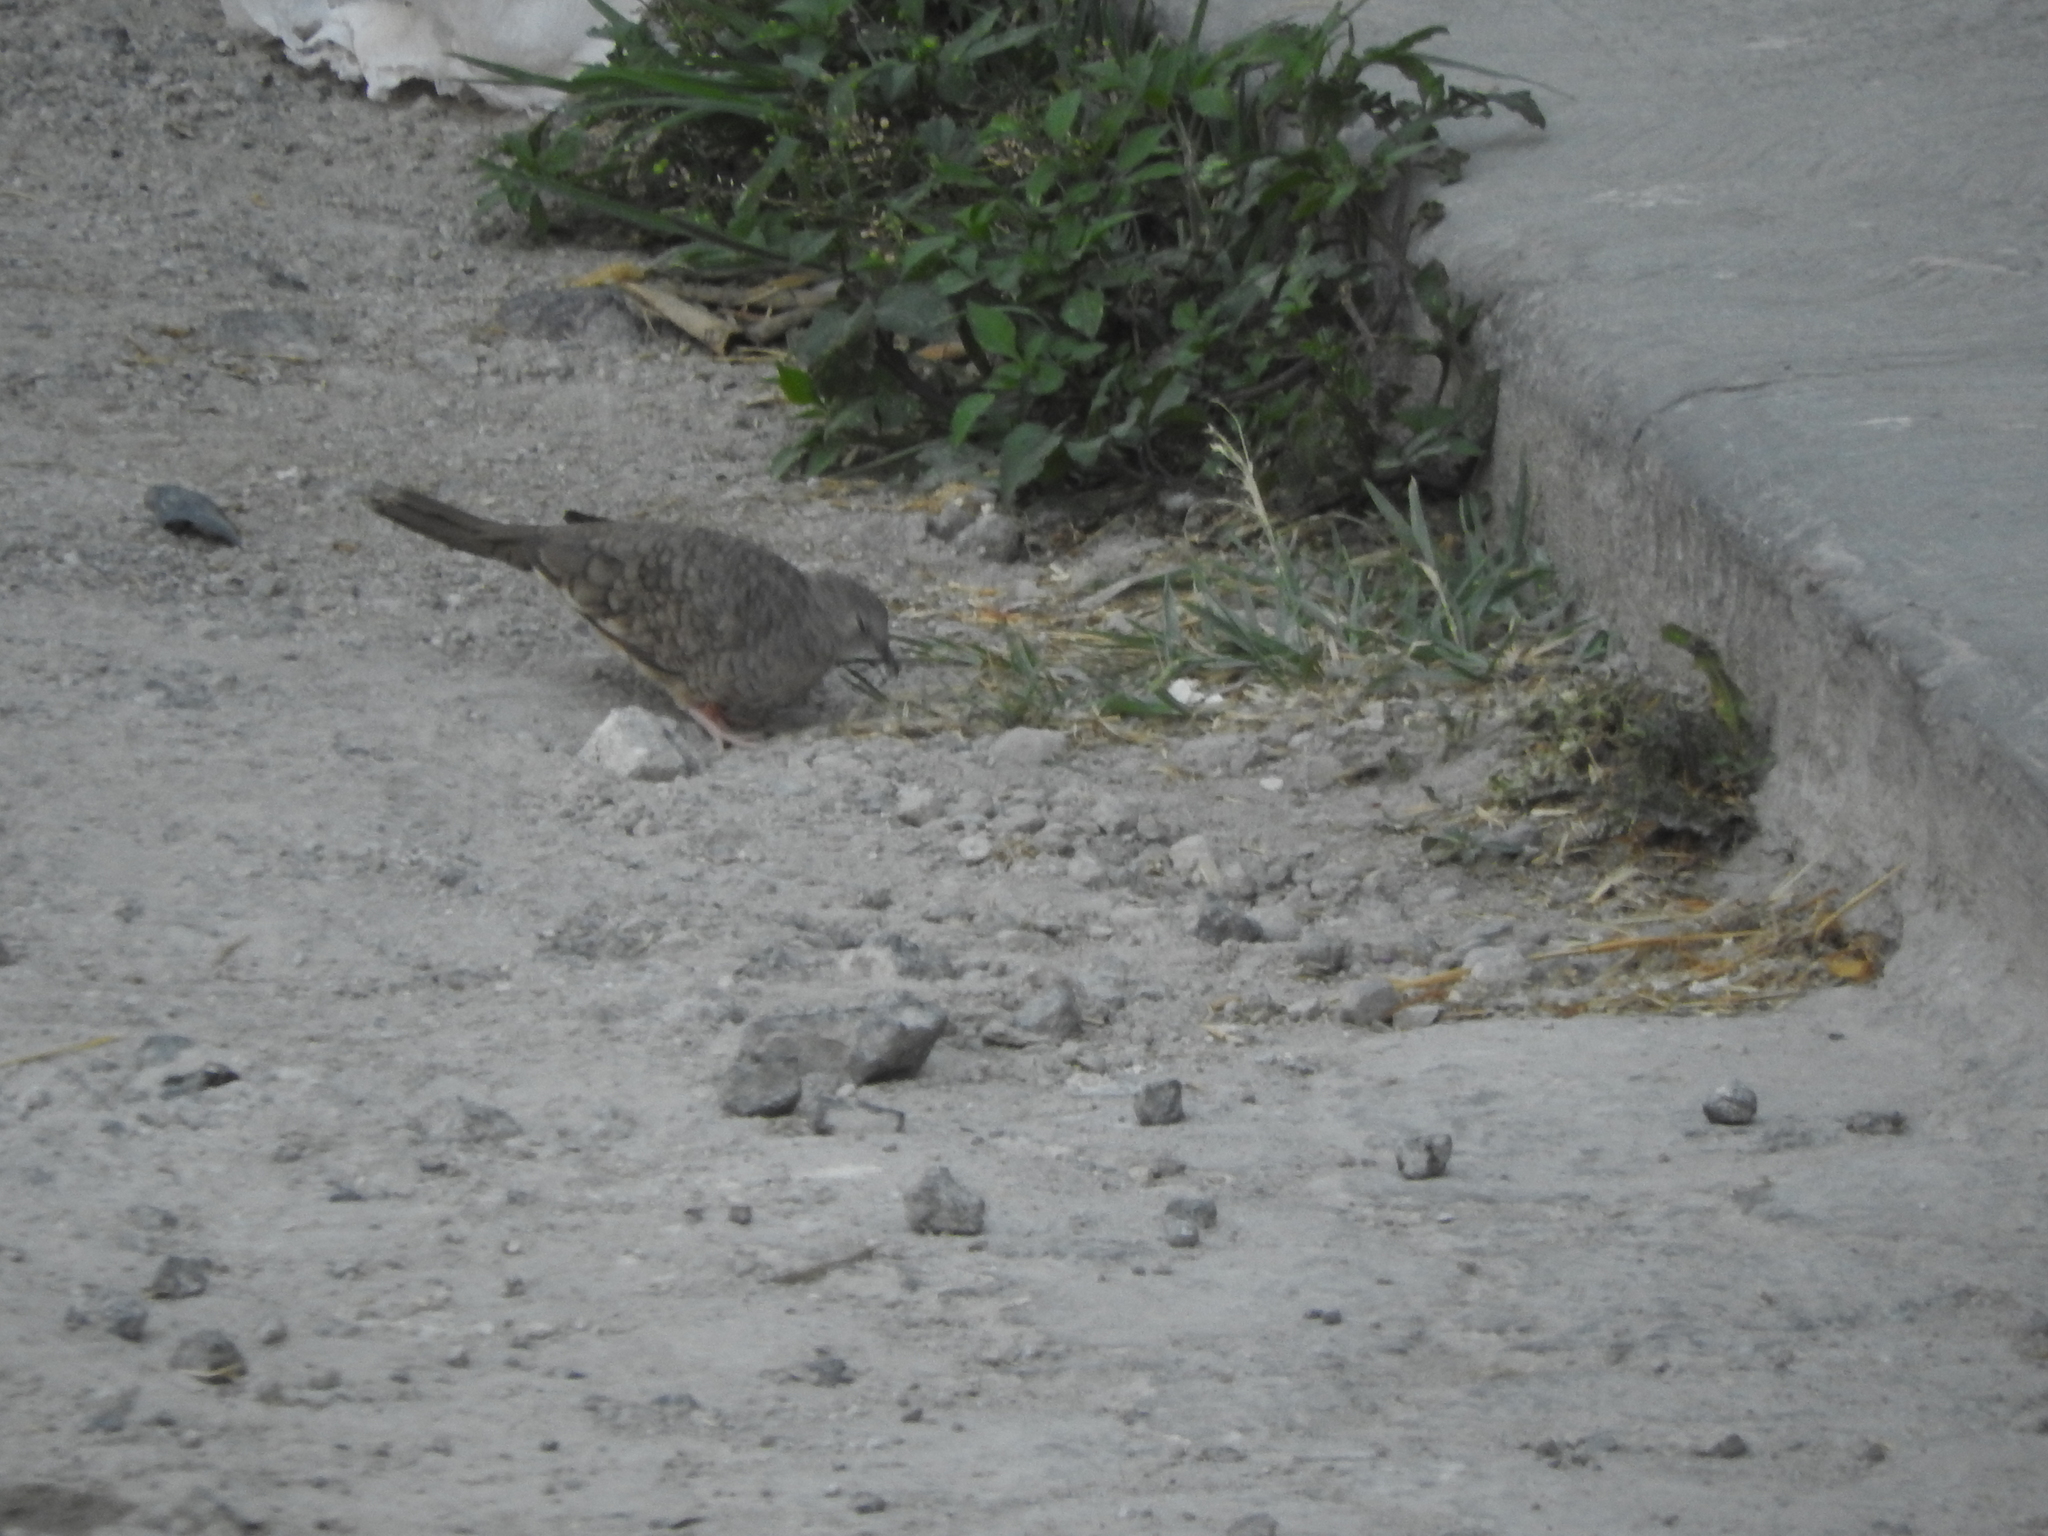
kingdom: Animalia
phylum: Chordata
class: Aves
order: Columbiformes
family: Columbidae
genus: Columbina
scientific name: Columbina inca
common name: Inca dove
